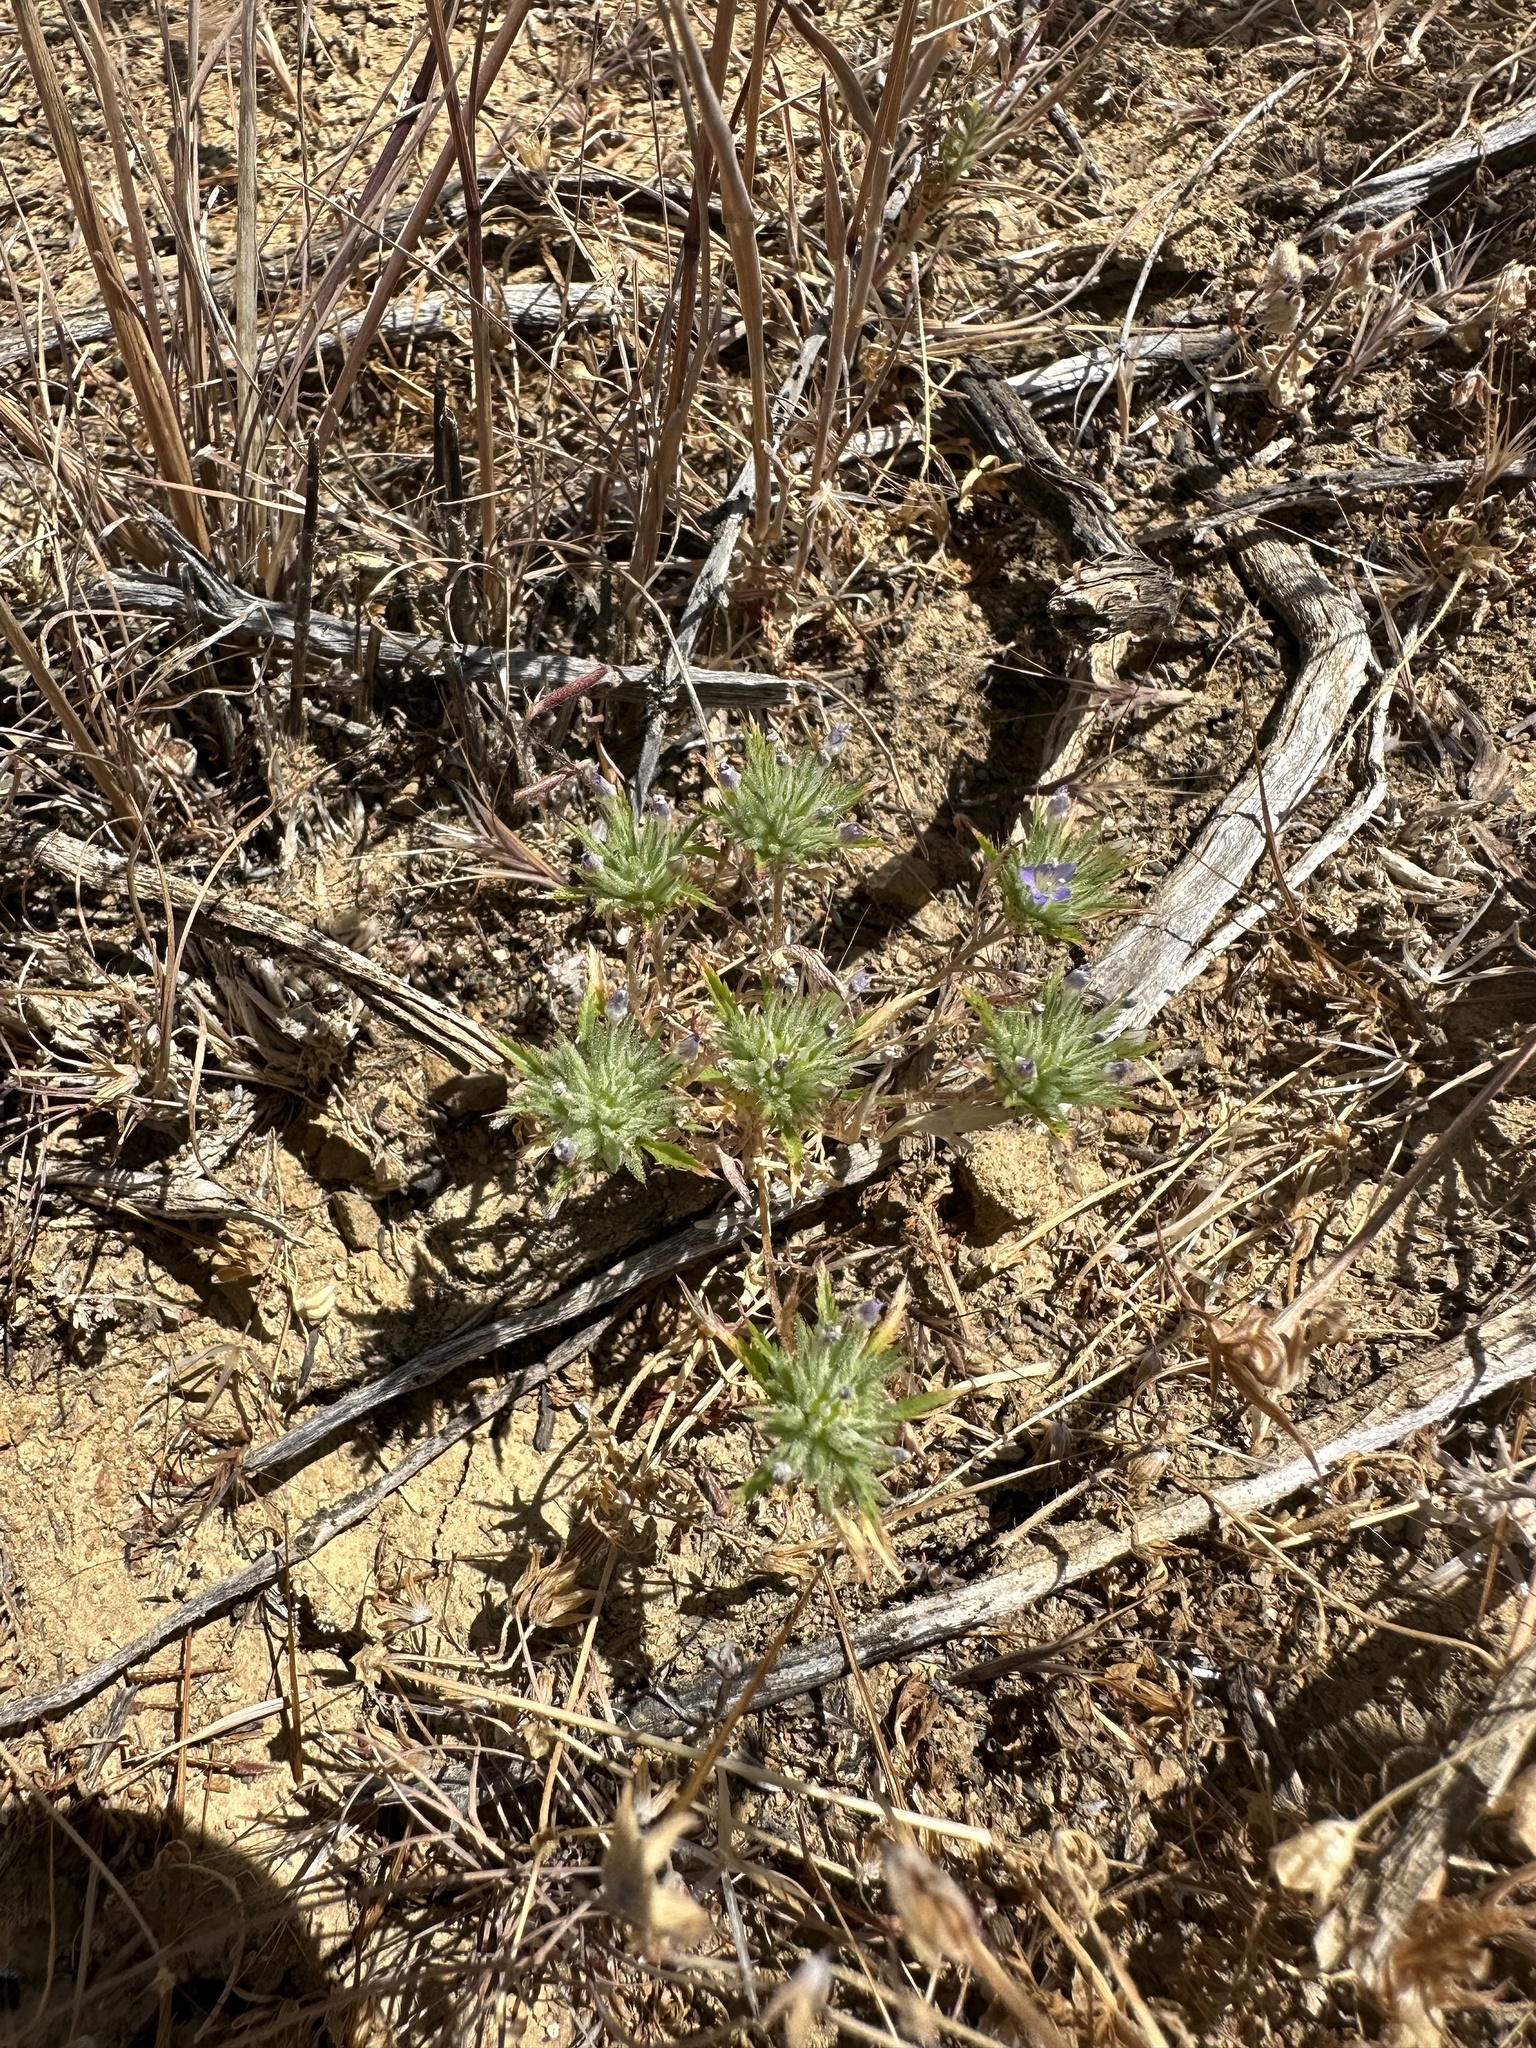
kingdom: Plantae
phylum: Tracheophyta
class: Magnoliopsida
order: Ericales
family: Polemoniaceae
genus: Navarretia
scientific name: Navarretia pubescens
